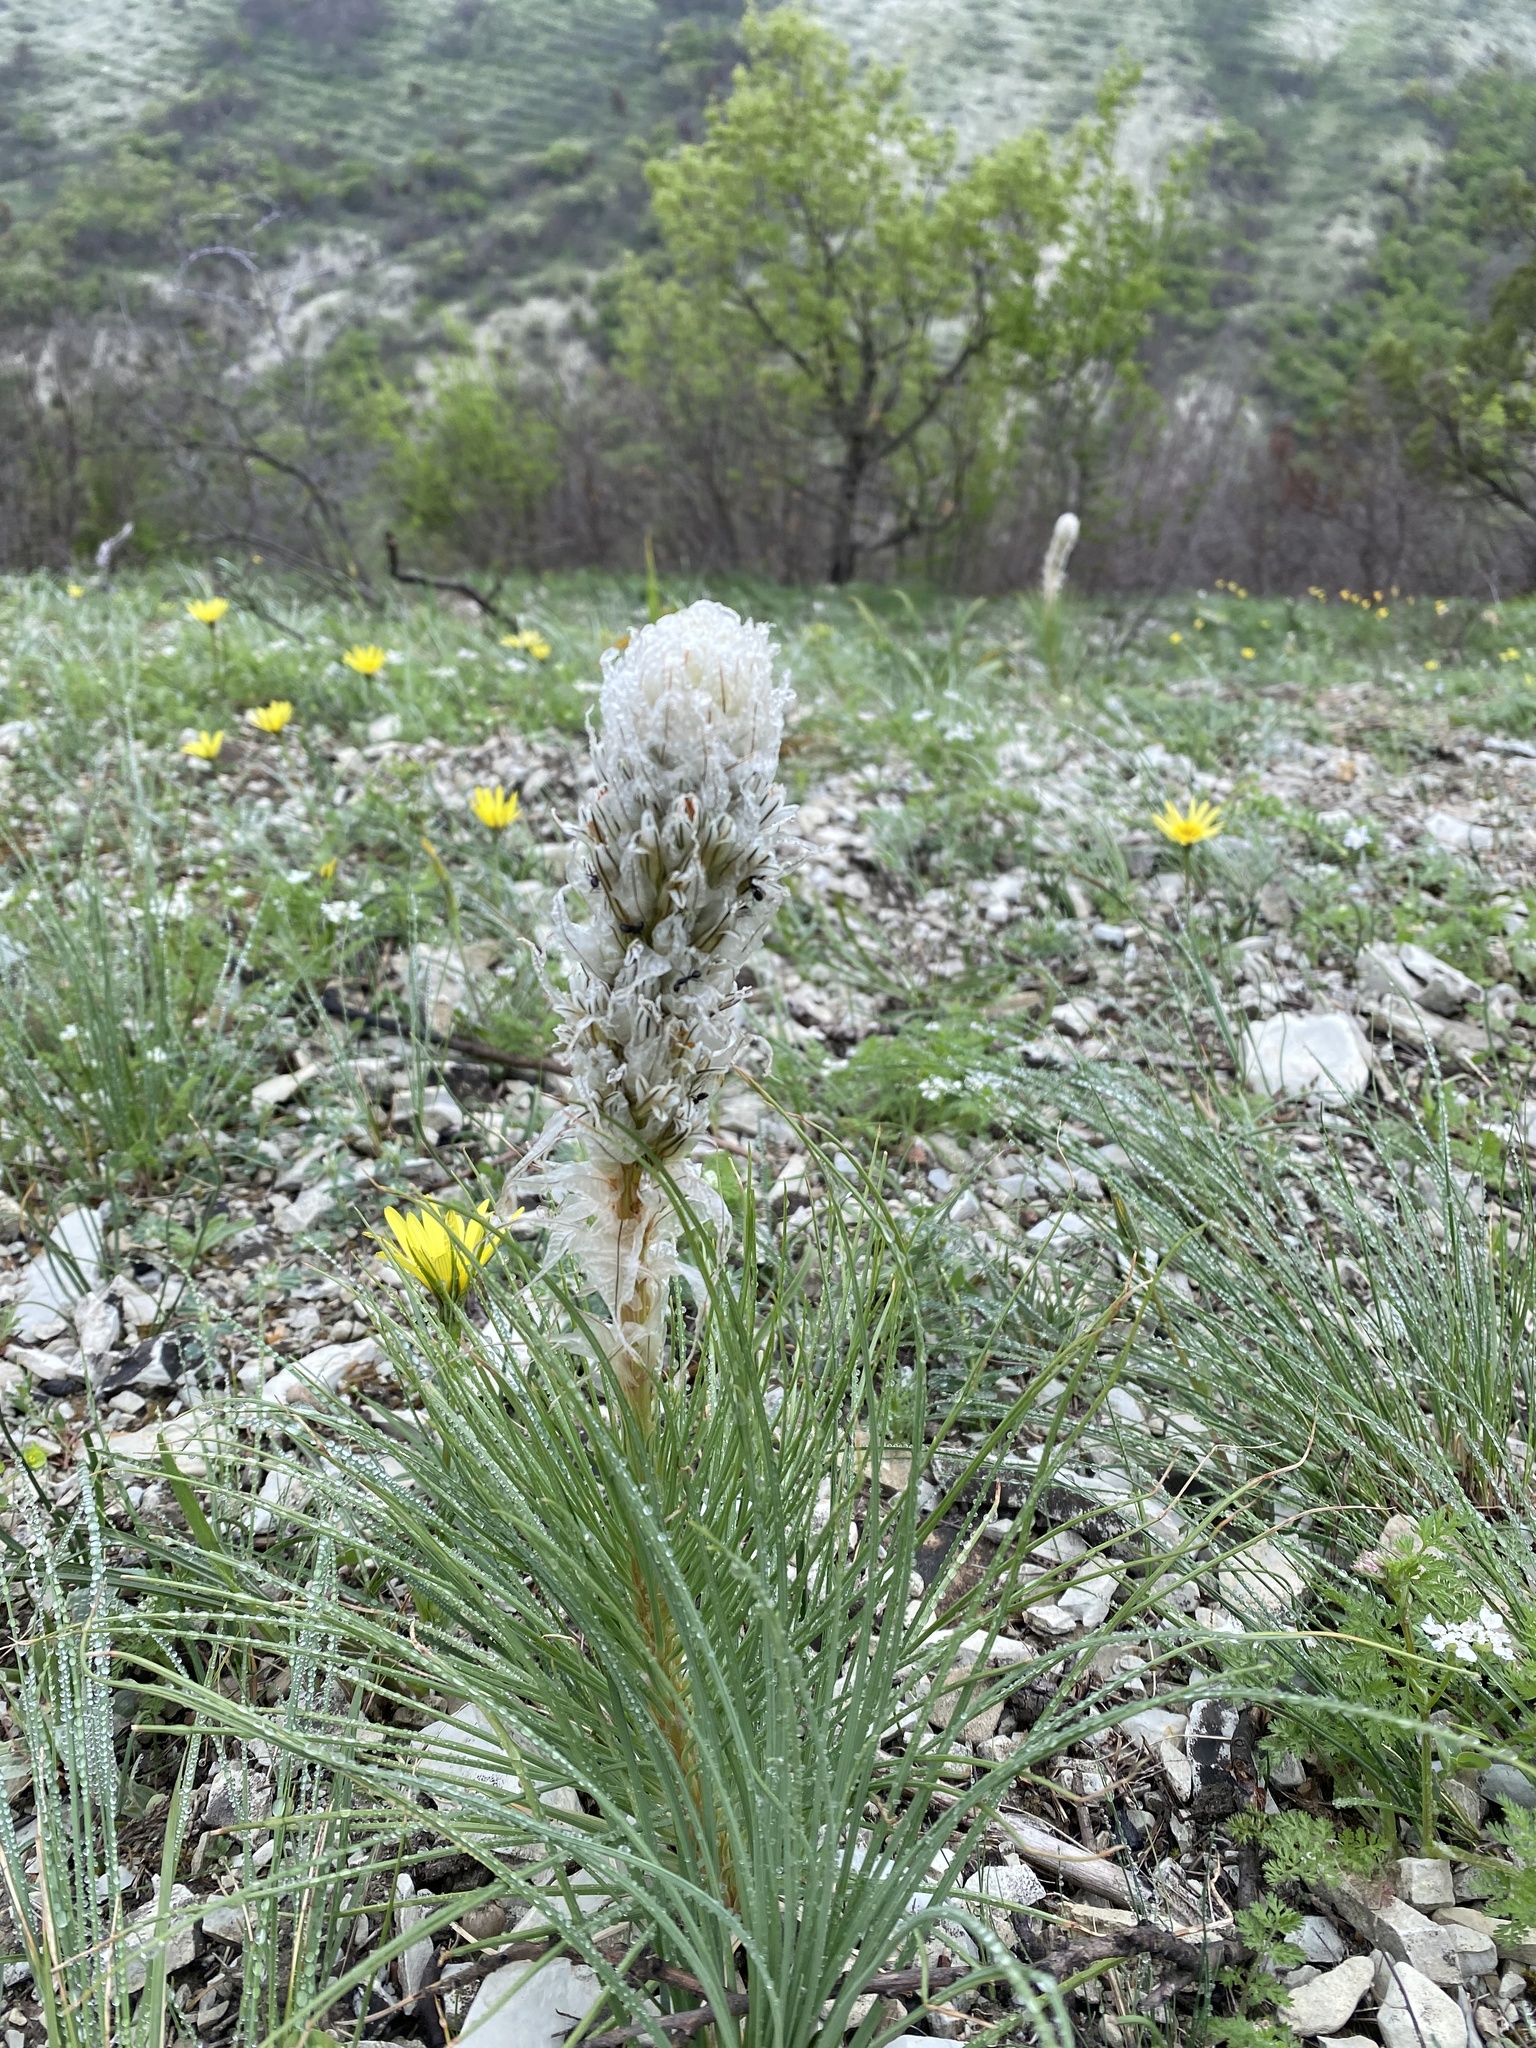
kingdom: Plantae
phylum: Tracheophyta
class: Liliopsida
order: Asparagales
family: Asphodelaceae
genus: Asphodeline
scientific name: Asphodeline taurica
